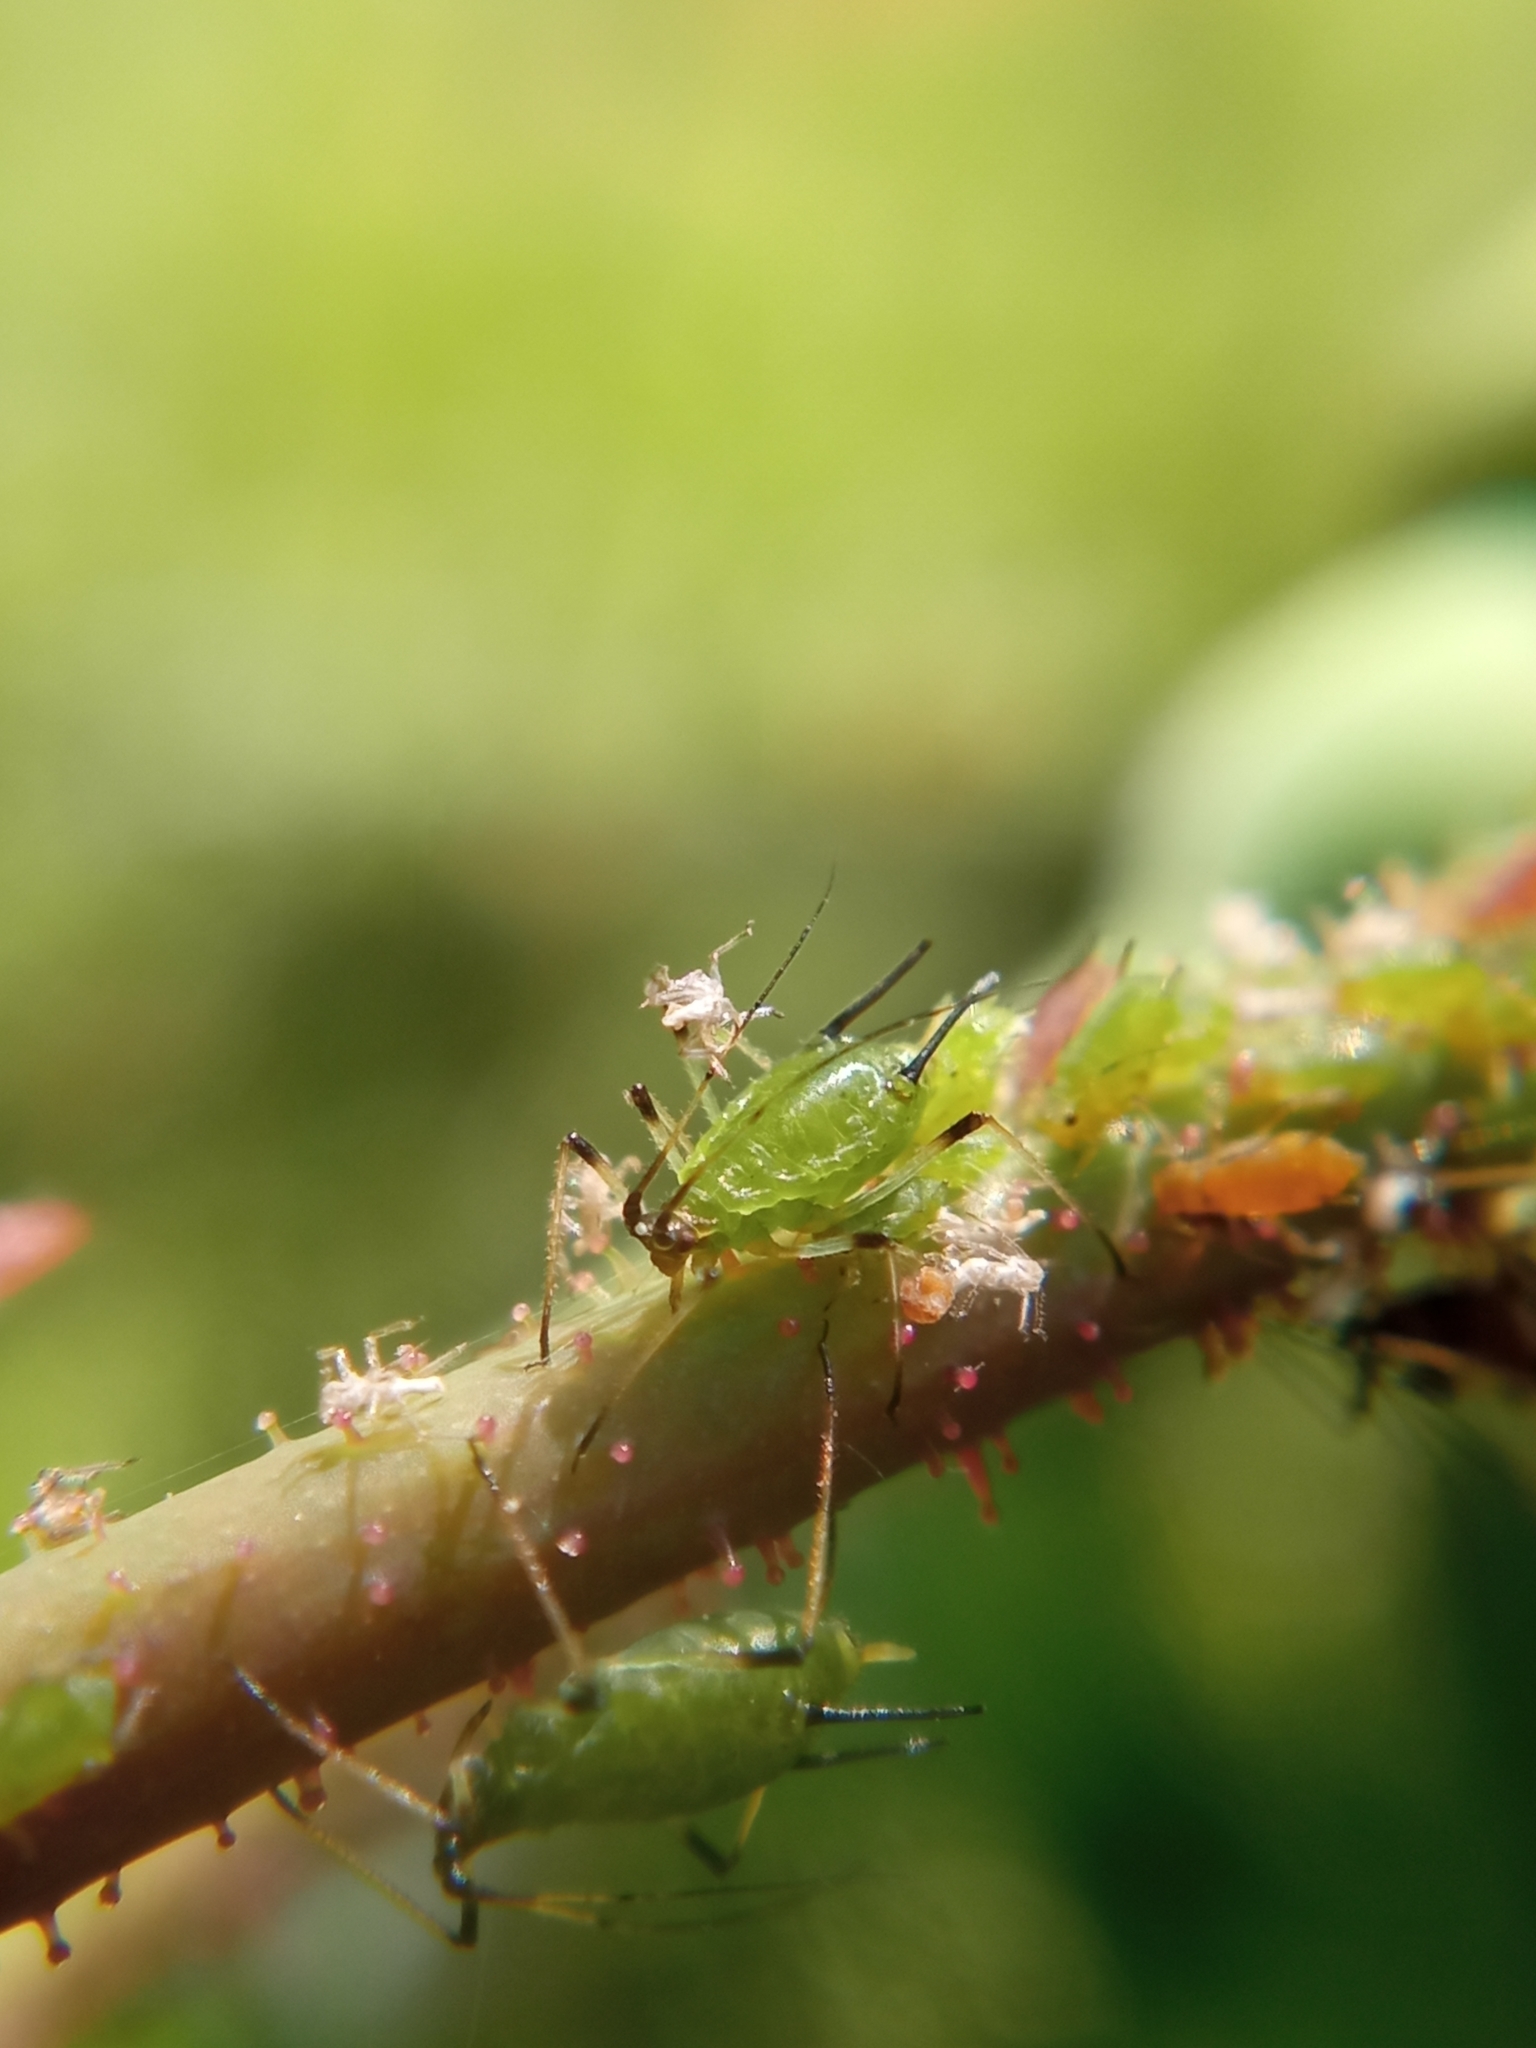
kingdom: Animalia
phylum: Arthropoda
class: Insecta
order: Hemiptera
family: Aphididae
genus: Macrosiphum
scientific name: Macrosiphum rosae
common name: Rose aphid
